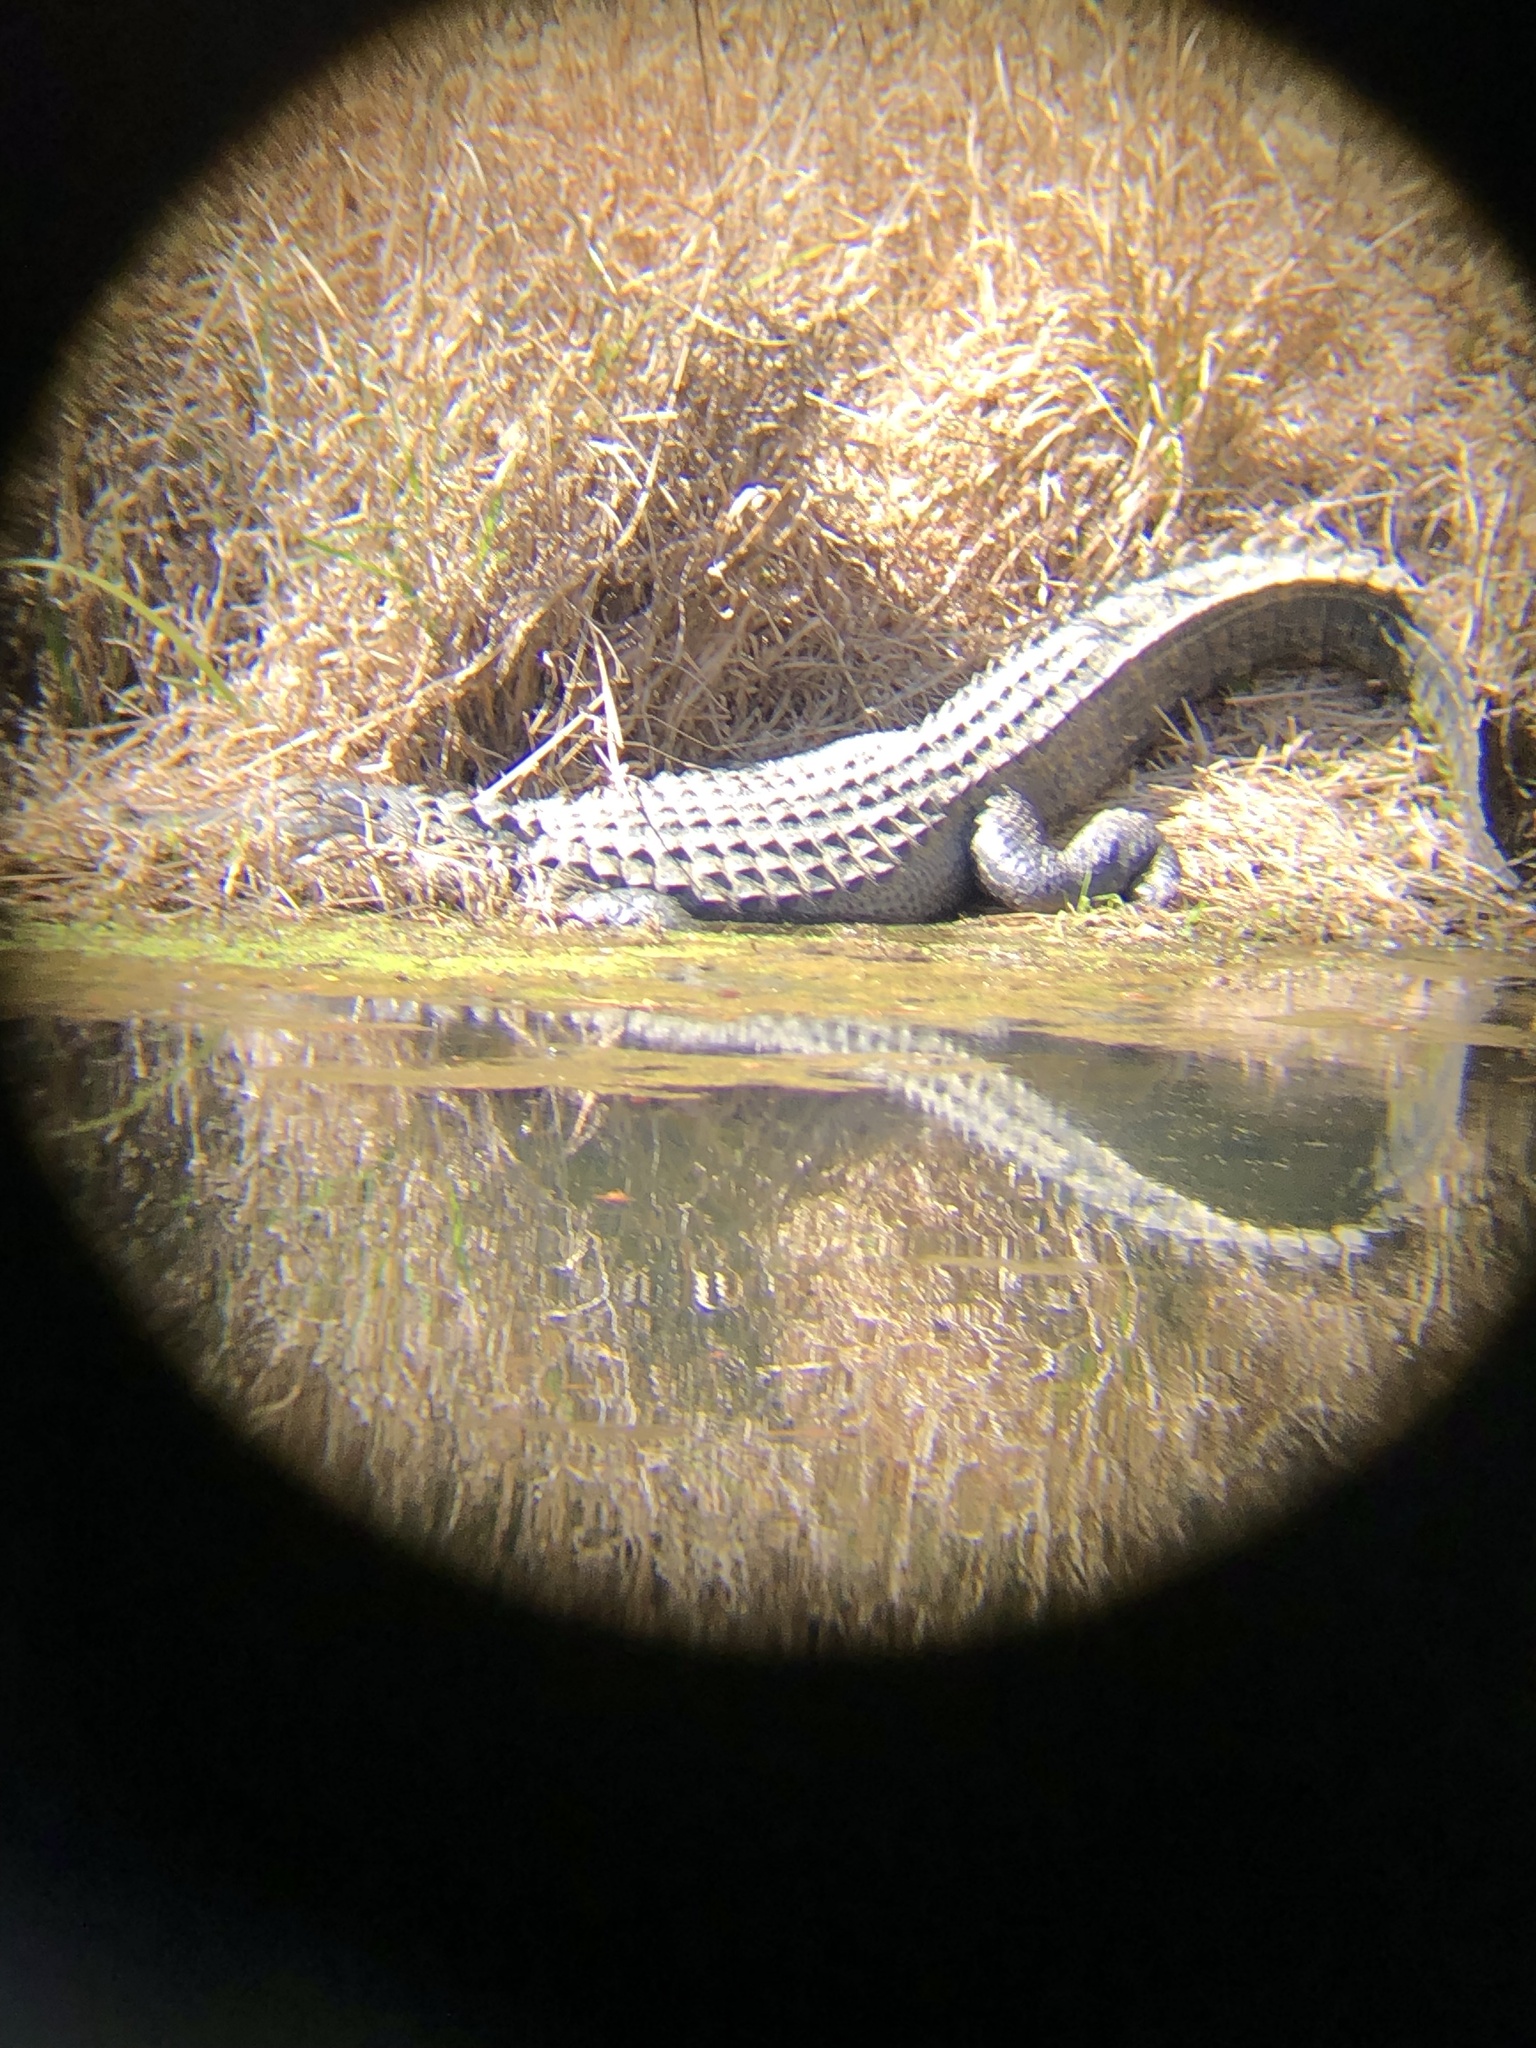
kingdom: Animalia
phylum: Chordata
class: Crocodylia
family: Alligatoridae
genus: Alligator
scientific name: Alligator mississippiensis
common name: American alligator
